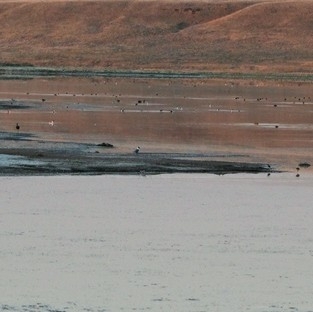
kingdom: Animalia
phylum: Chordata
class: Aves
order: Charadriiformes
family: Laridae
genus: Leucophaeus
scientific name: Leucophaeus pipixcan
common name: Franklin's gull
